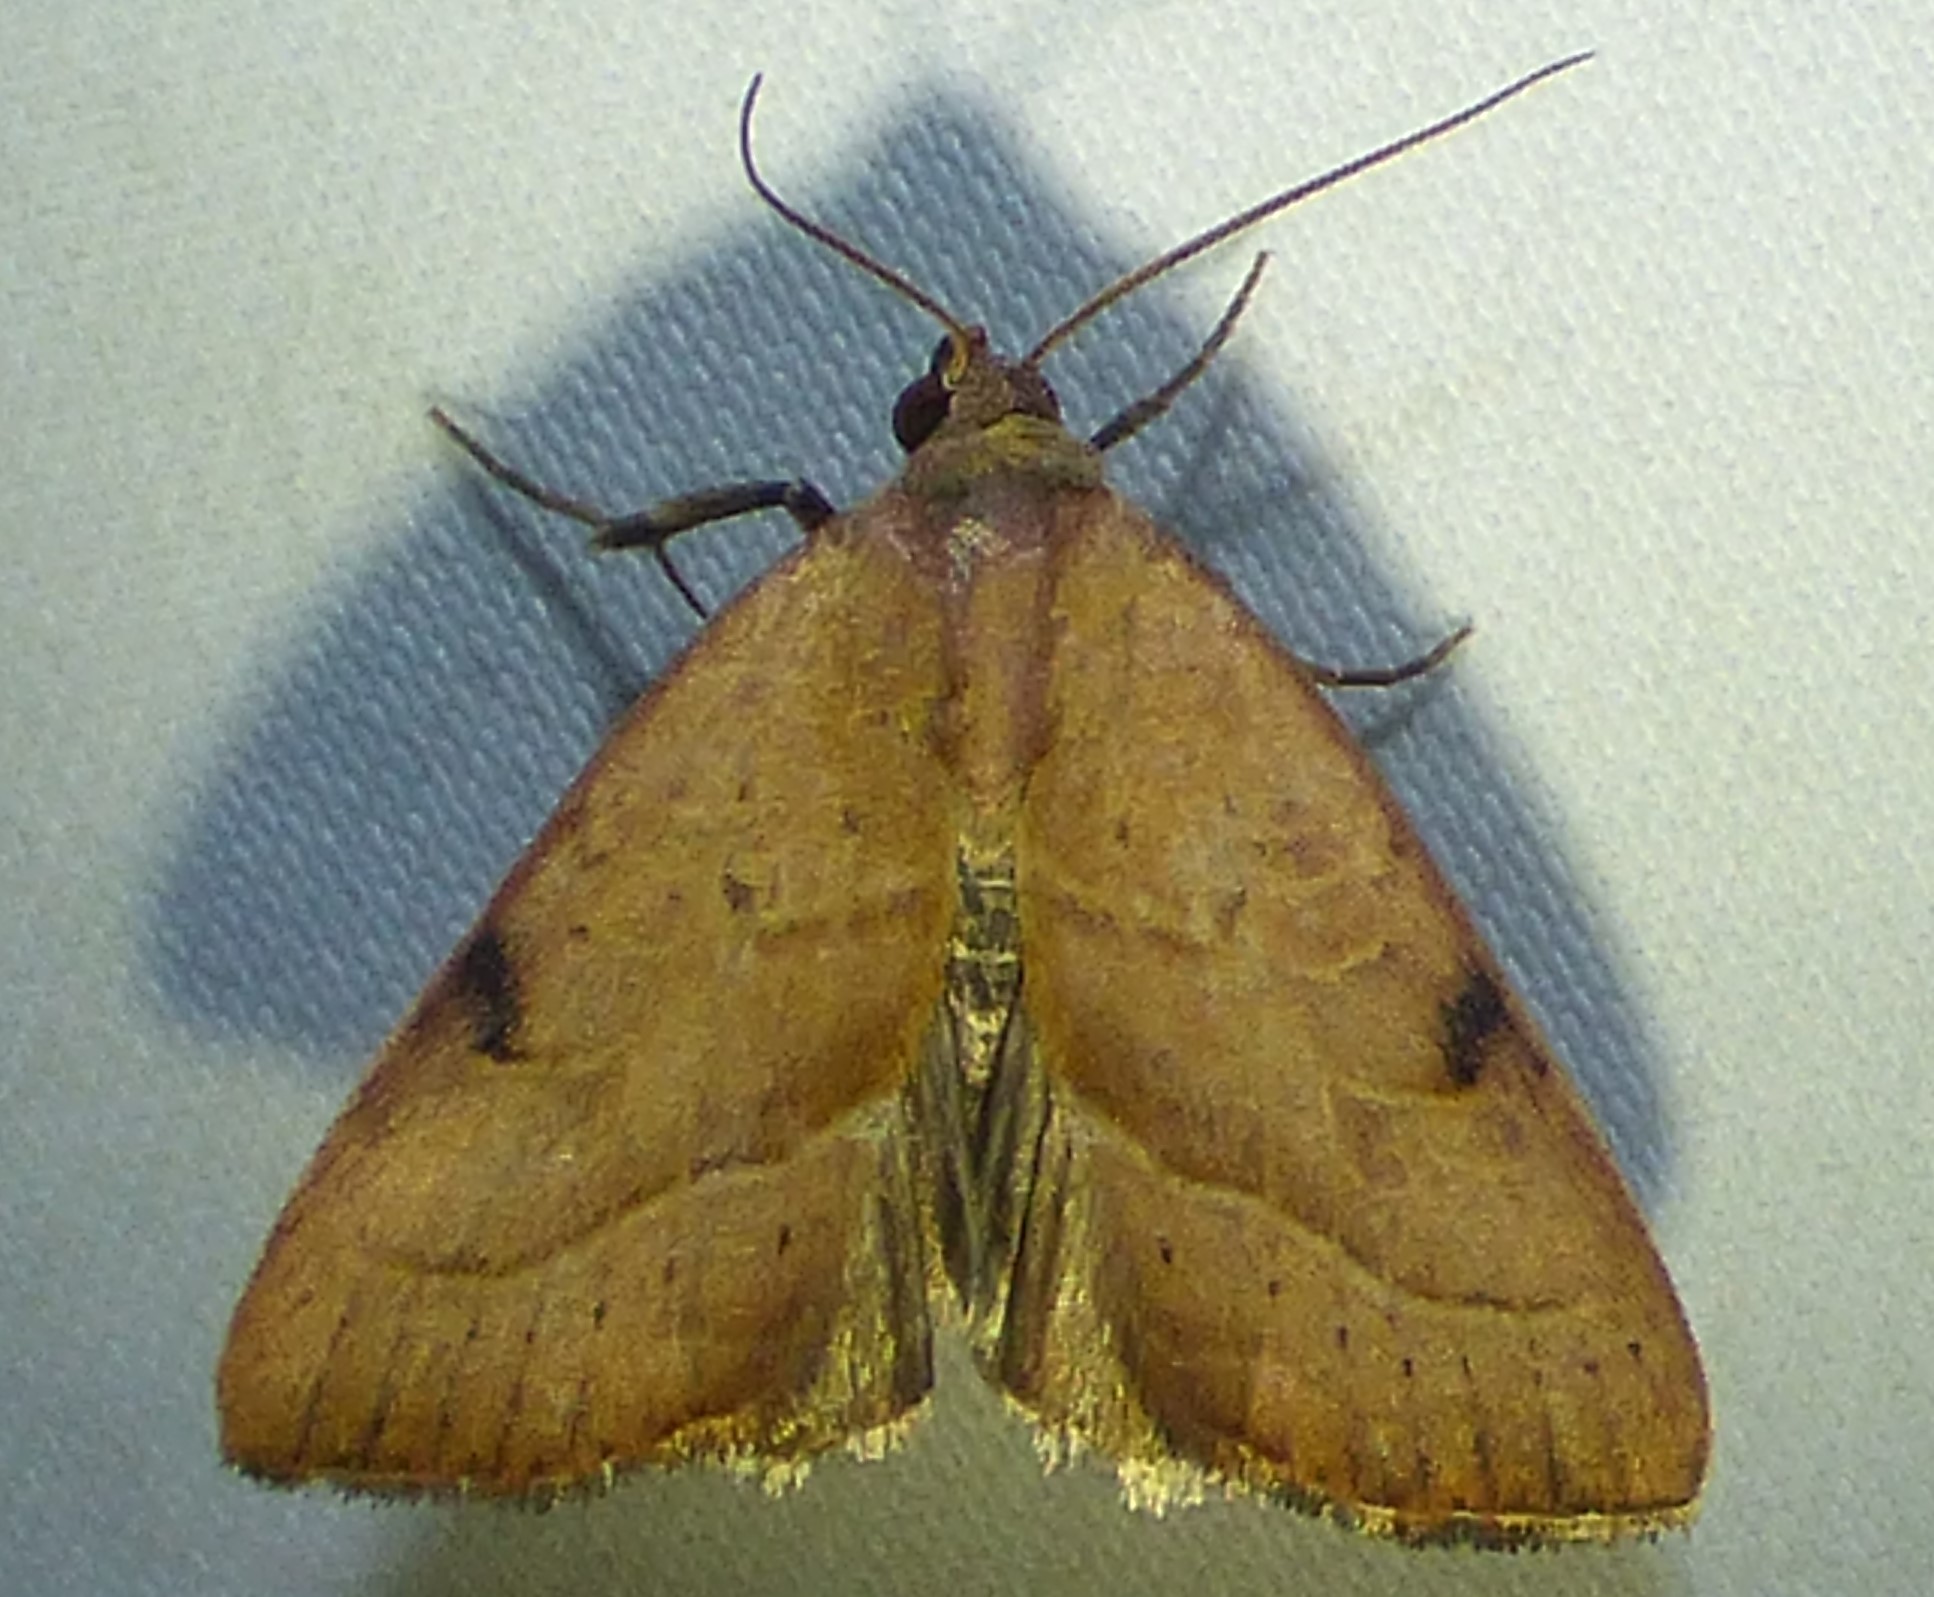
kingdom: Animalia
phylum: Arthropoda
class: Insecta
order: Lepidoptera
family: Noctuidae
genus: Galgula
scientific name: Galgula partita
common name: Wedgeling
